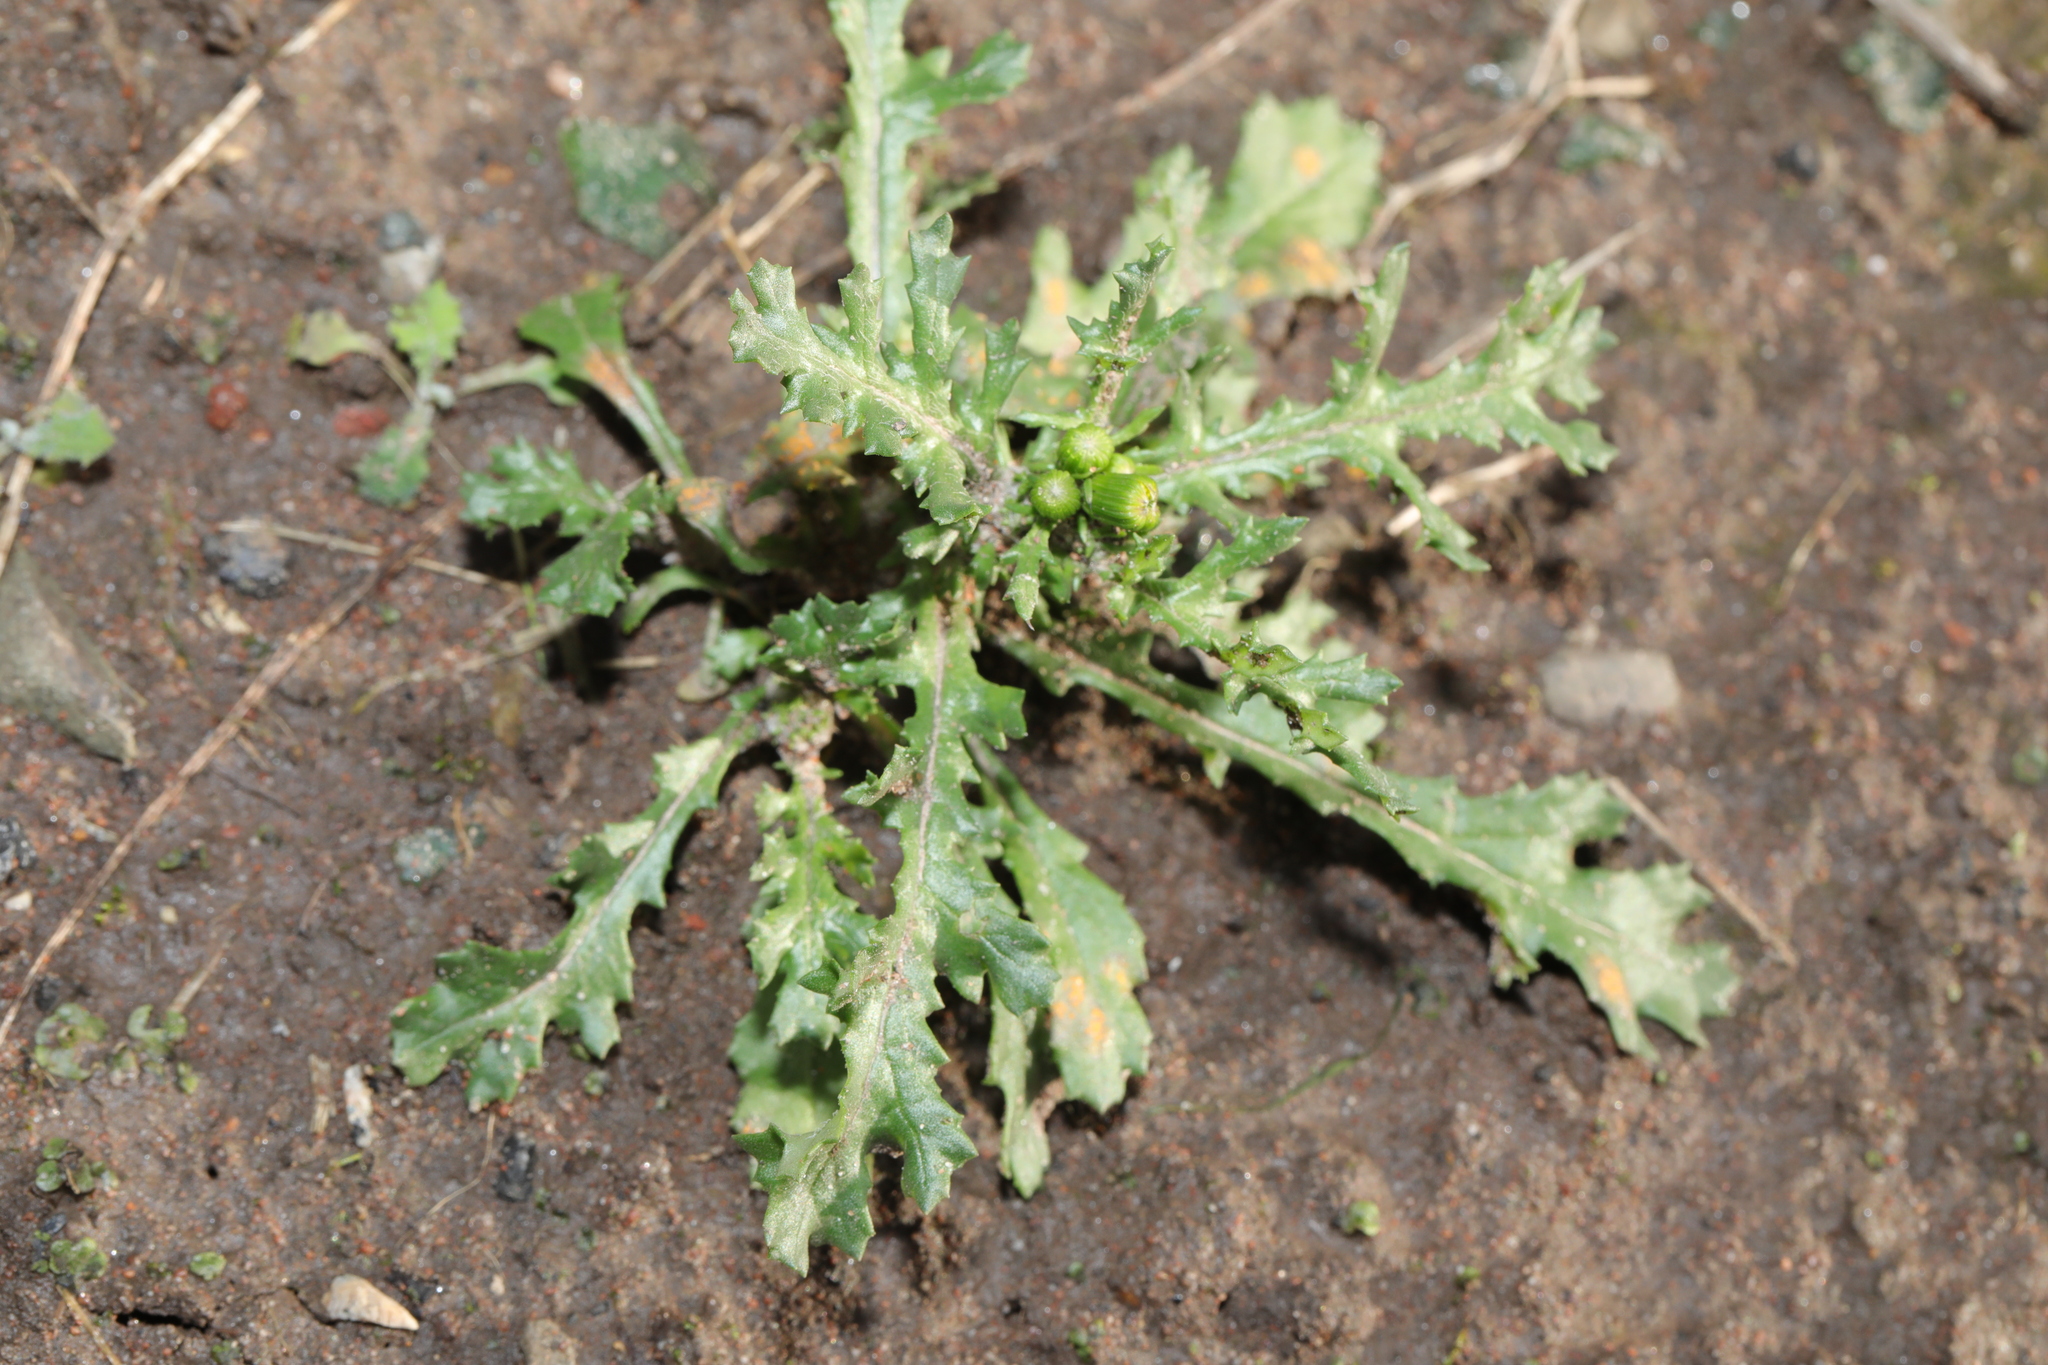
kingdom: Plantae
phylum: Tracheophyta
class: Magnoliopsida
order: Asterales
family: Asteraceae
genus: Senecio
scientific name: Senecio vulgaris
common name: Old-man-in-the-spring
